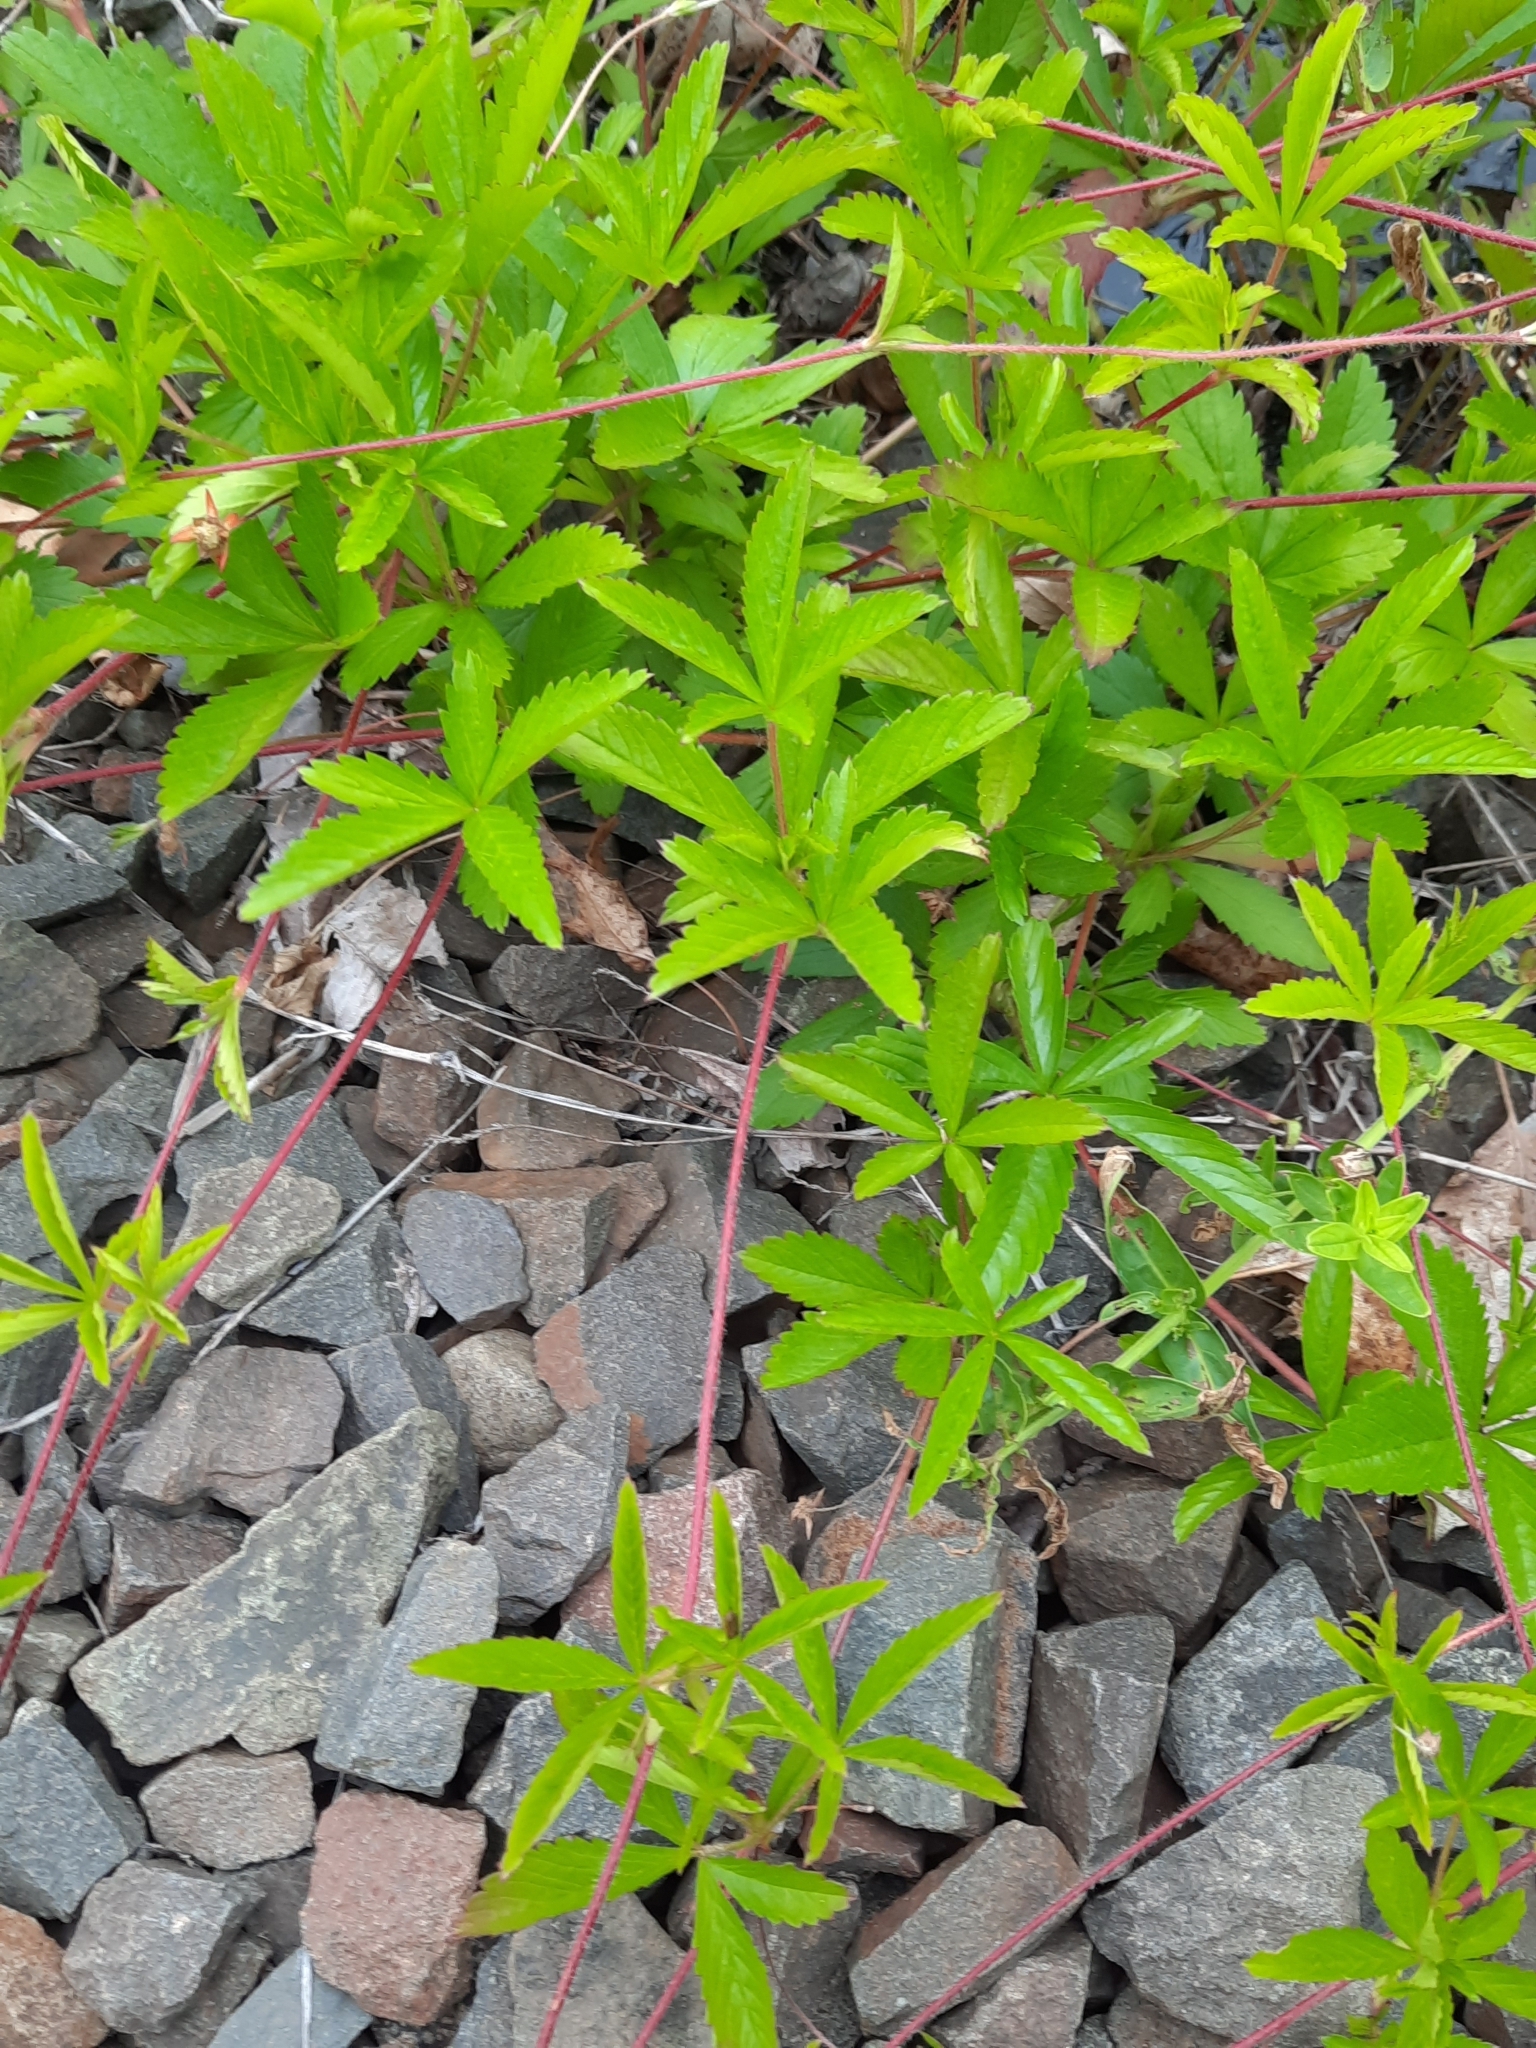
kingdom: Plantae
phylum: Tracheophyta
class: Magnoliopsida
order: Rosales
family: Rosaceae
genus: Potentilla
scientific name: Potentilla simplex
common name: Old field cinquefoil
